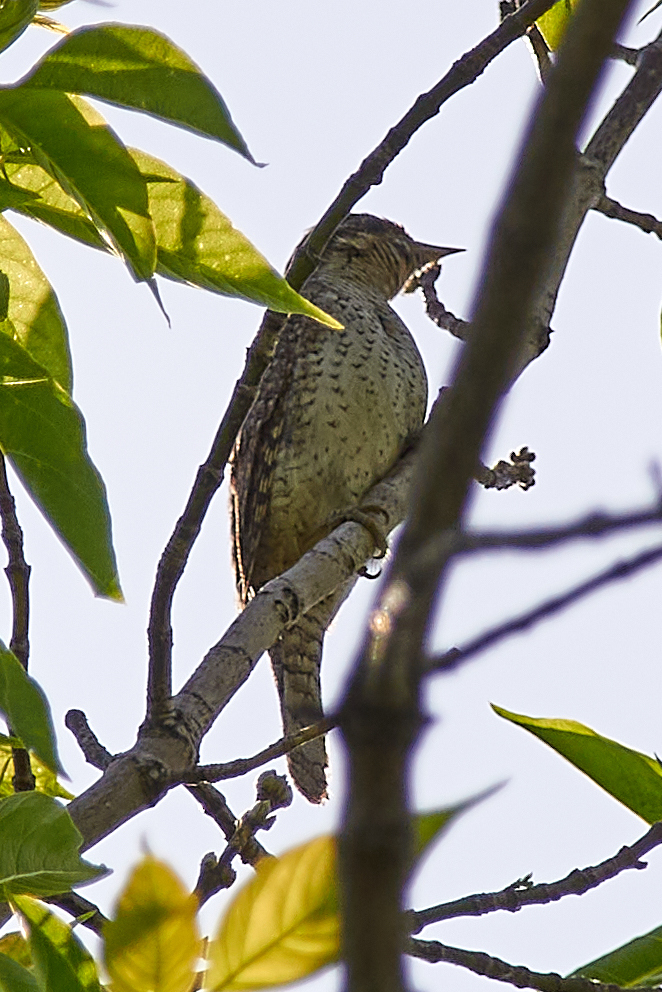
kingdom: Animalia
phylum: Chordata
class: Aves
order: Piciformes
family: Picidae
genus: Jynx
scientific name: Jynx torquilla
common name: Eurasian wryneck
